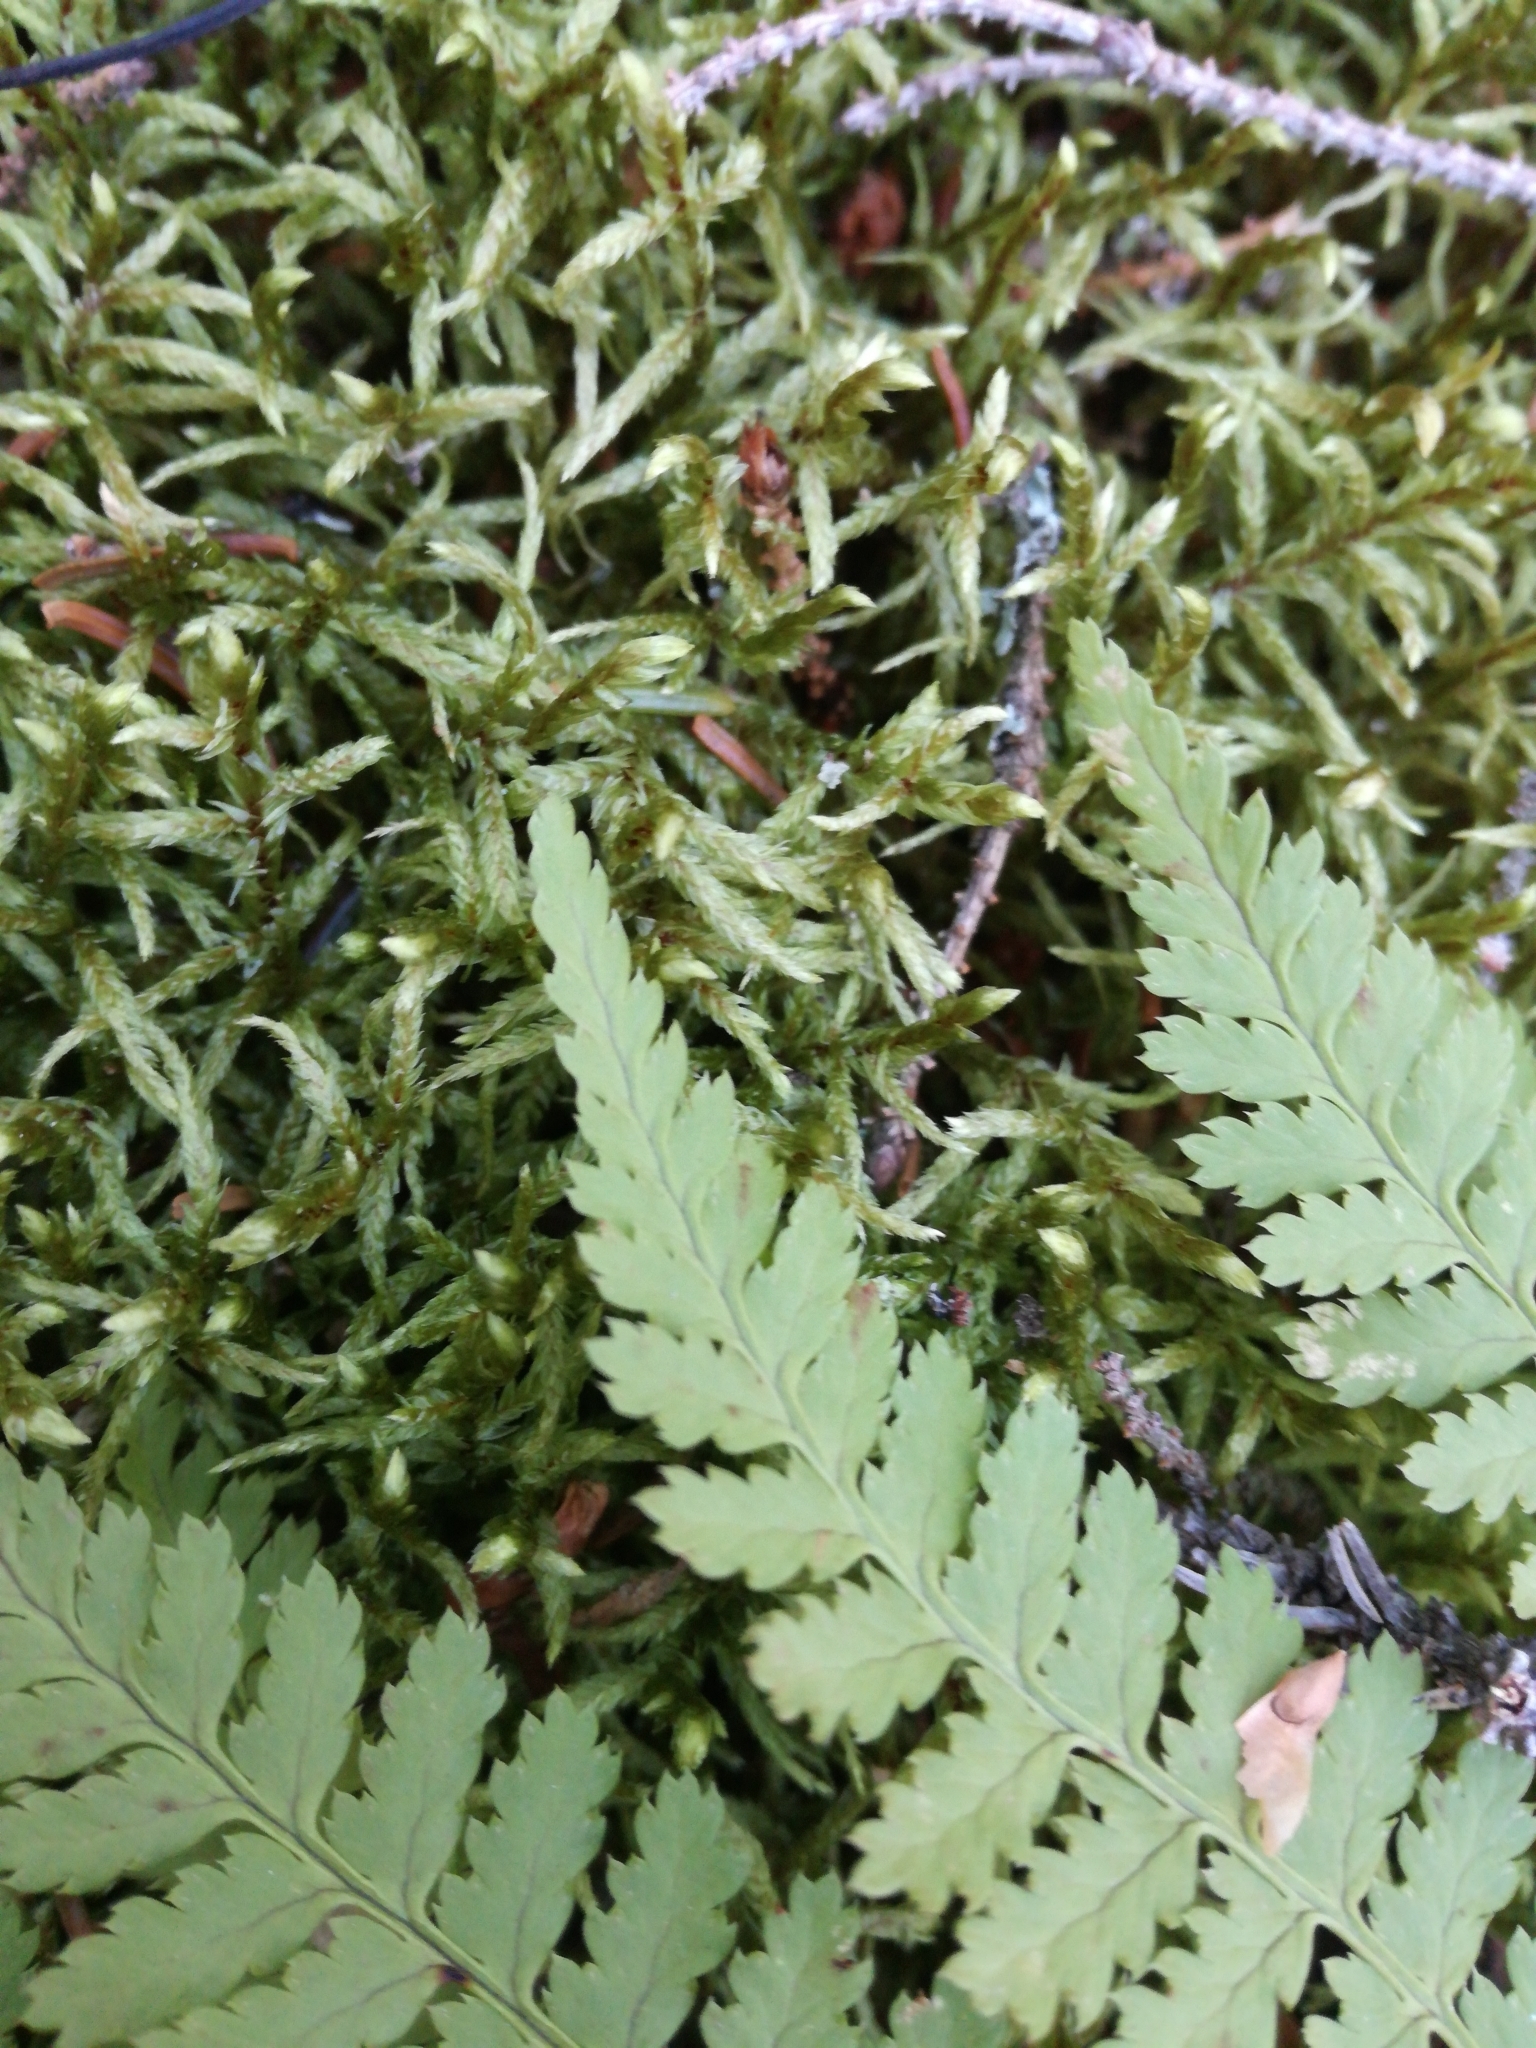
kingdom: Plantae
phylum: Tracheophyta
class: Polypodiopsida
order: Polypodiales
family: Dryopteridaceae
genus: Dryopteris
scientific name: Dryopteris intermedia
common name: Evergreen wood fern
